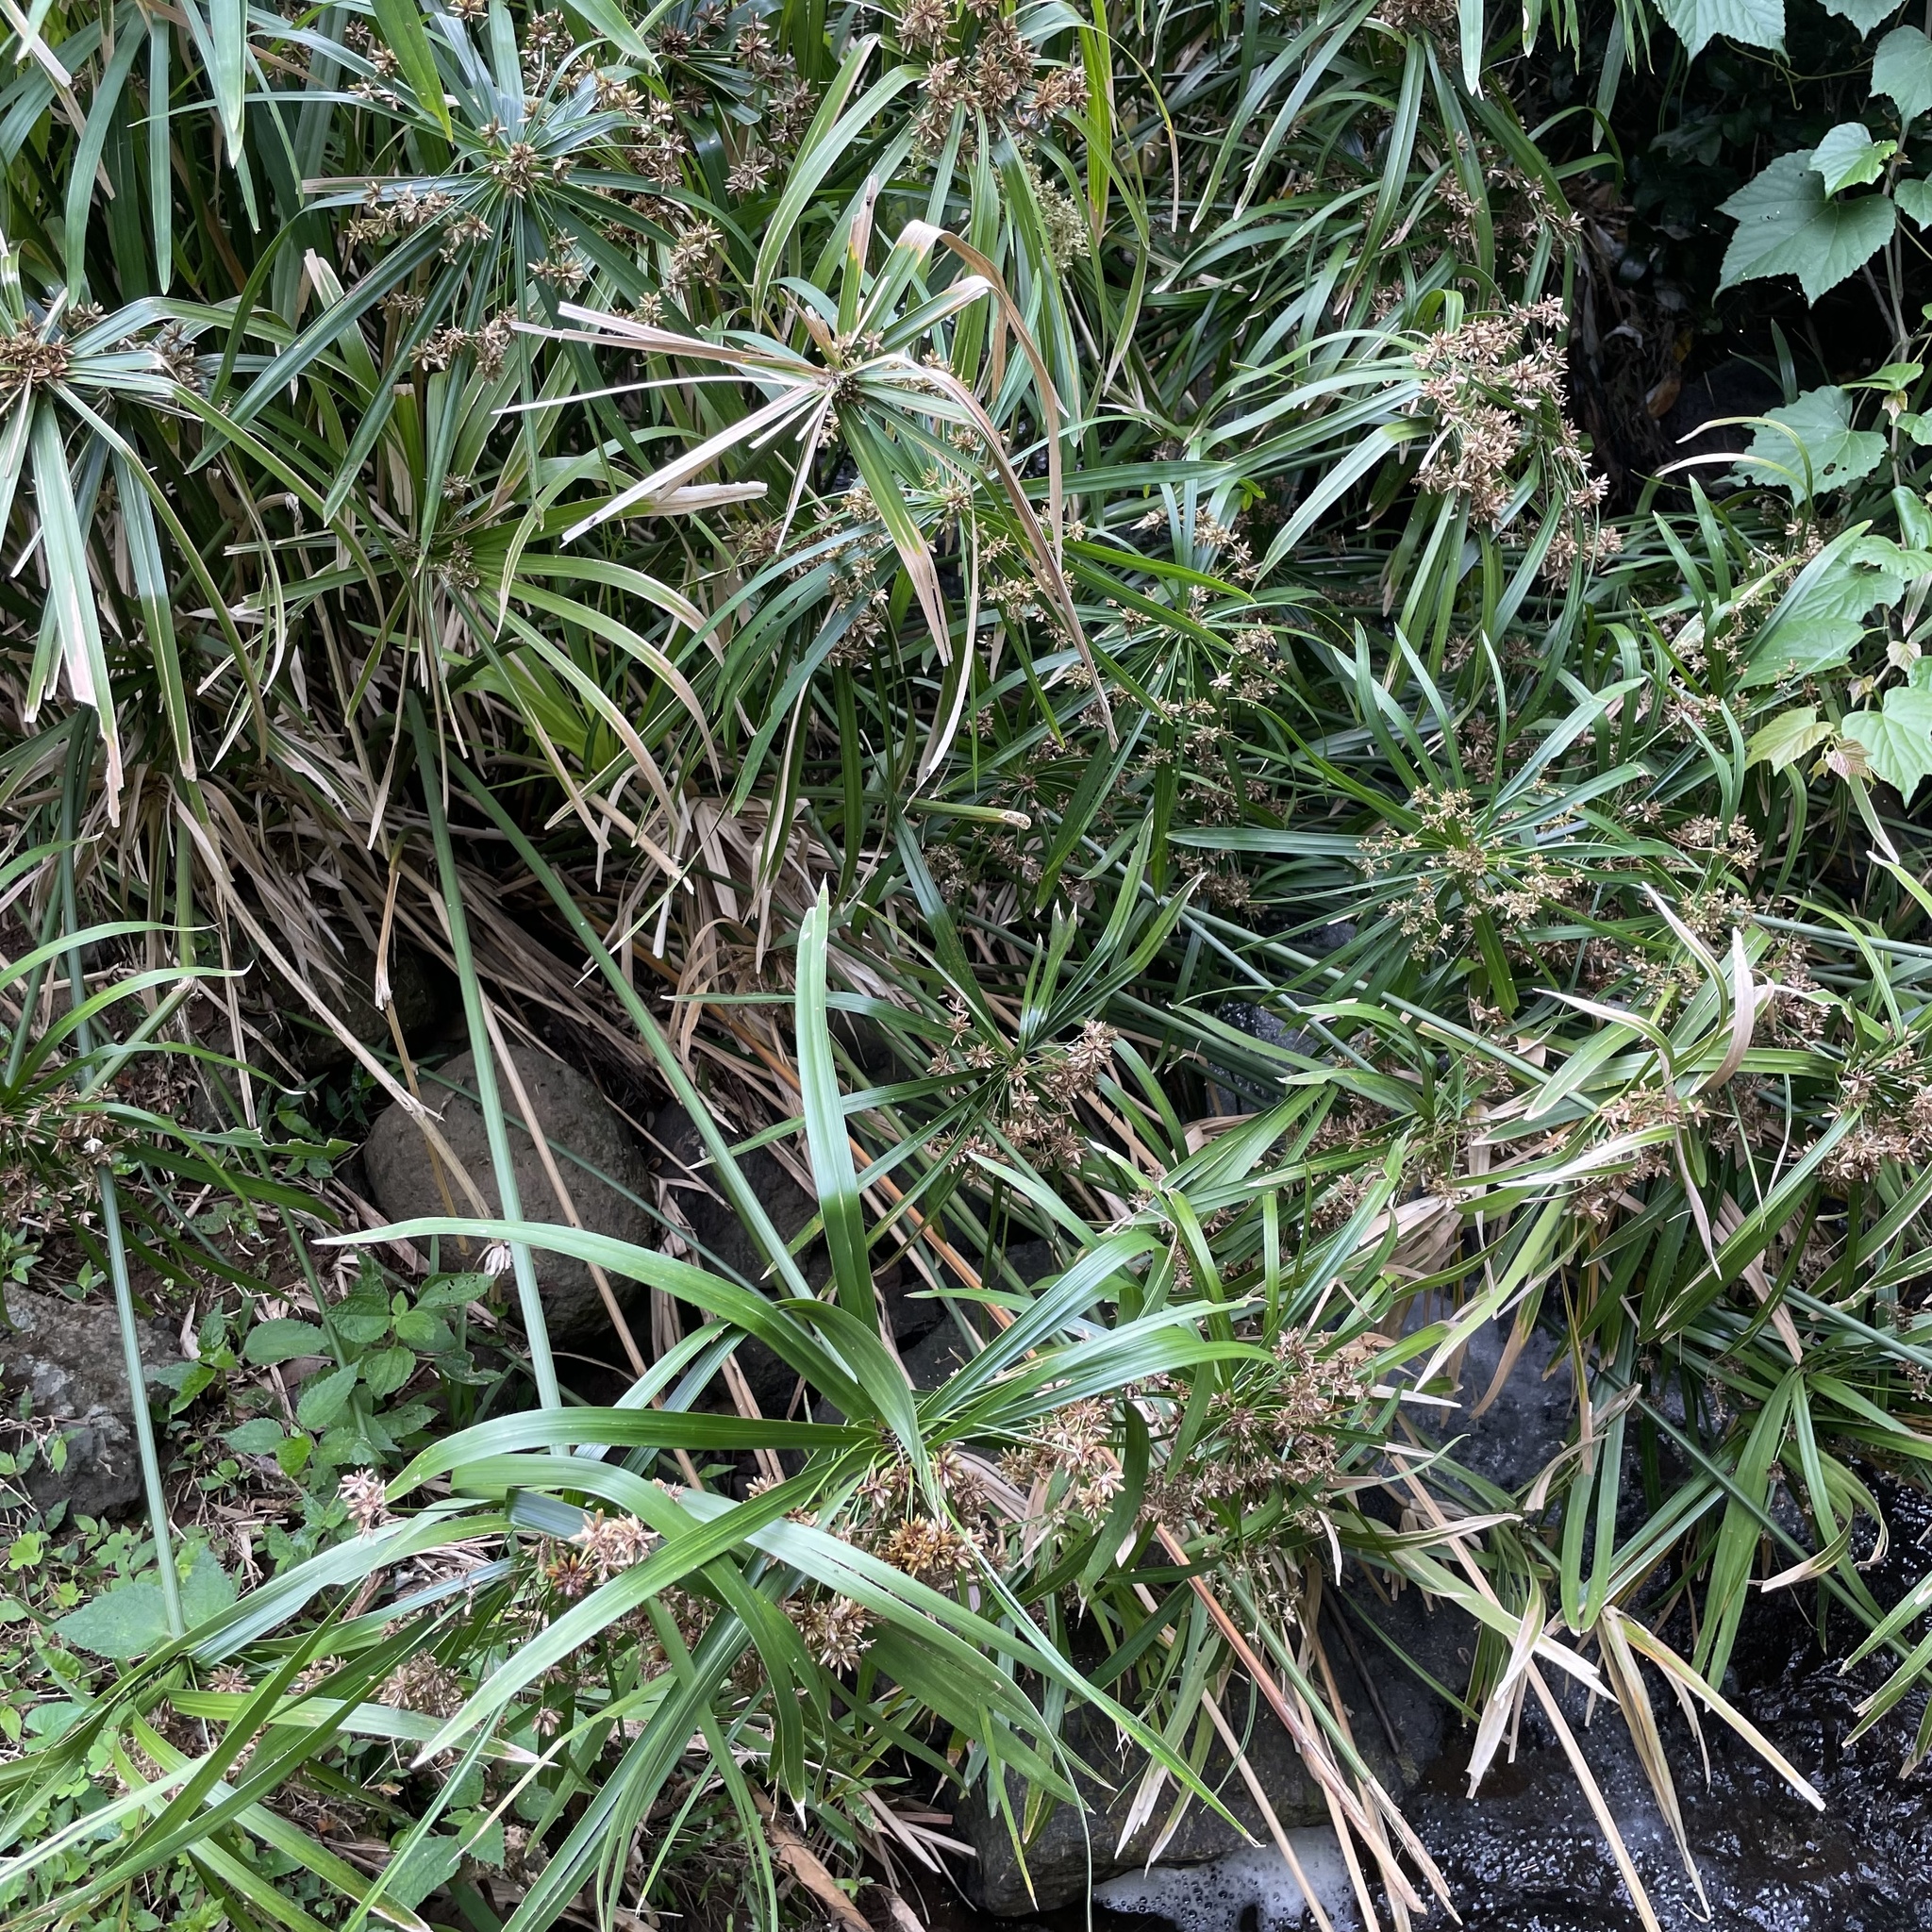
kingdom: Plantae
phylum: Tracheophyta
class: Liliopsida
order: Poales
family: Cyperaceae
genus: Cyperus
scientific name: Cyperus alternifolius
